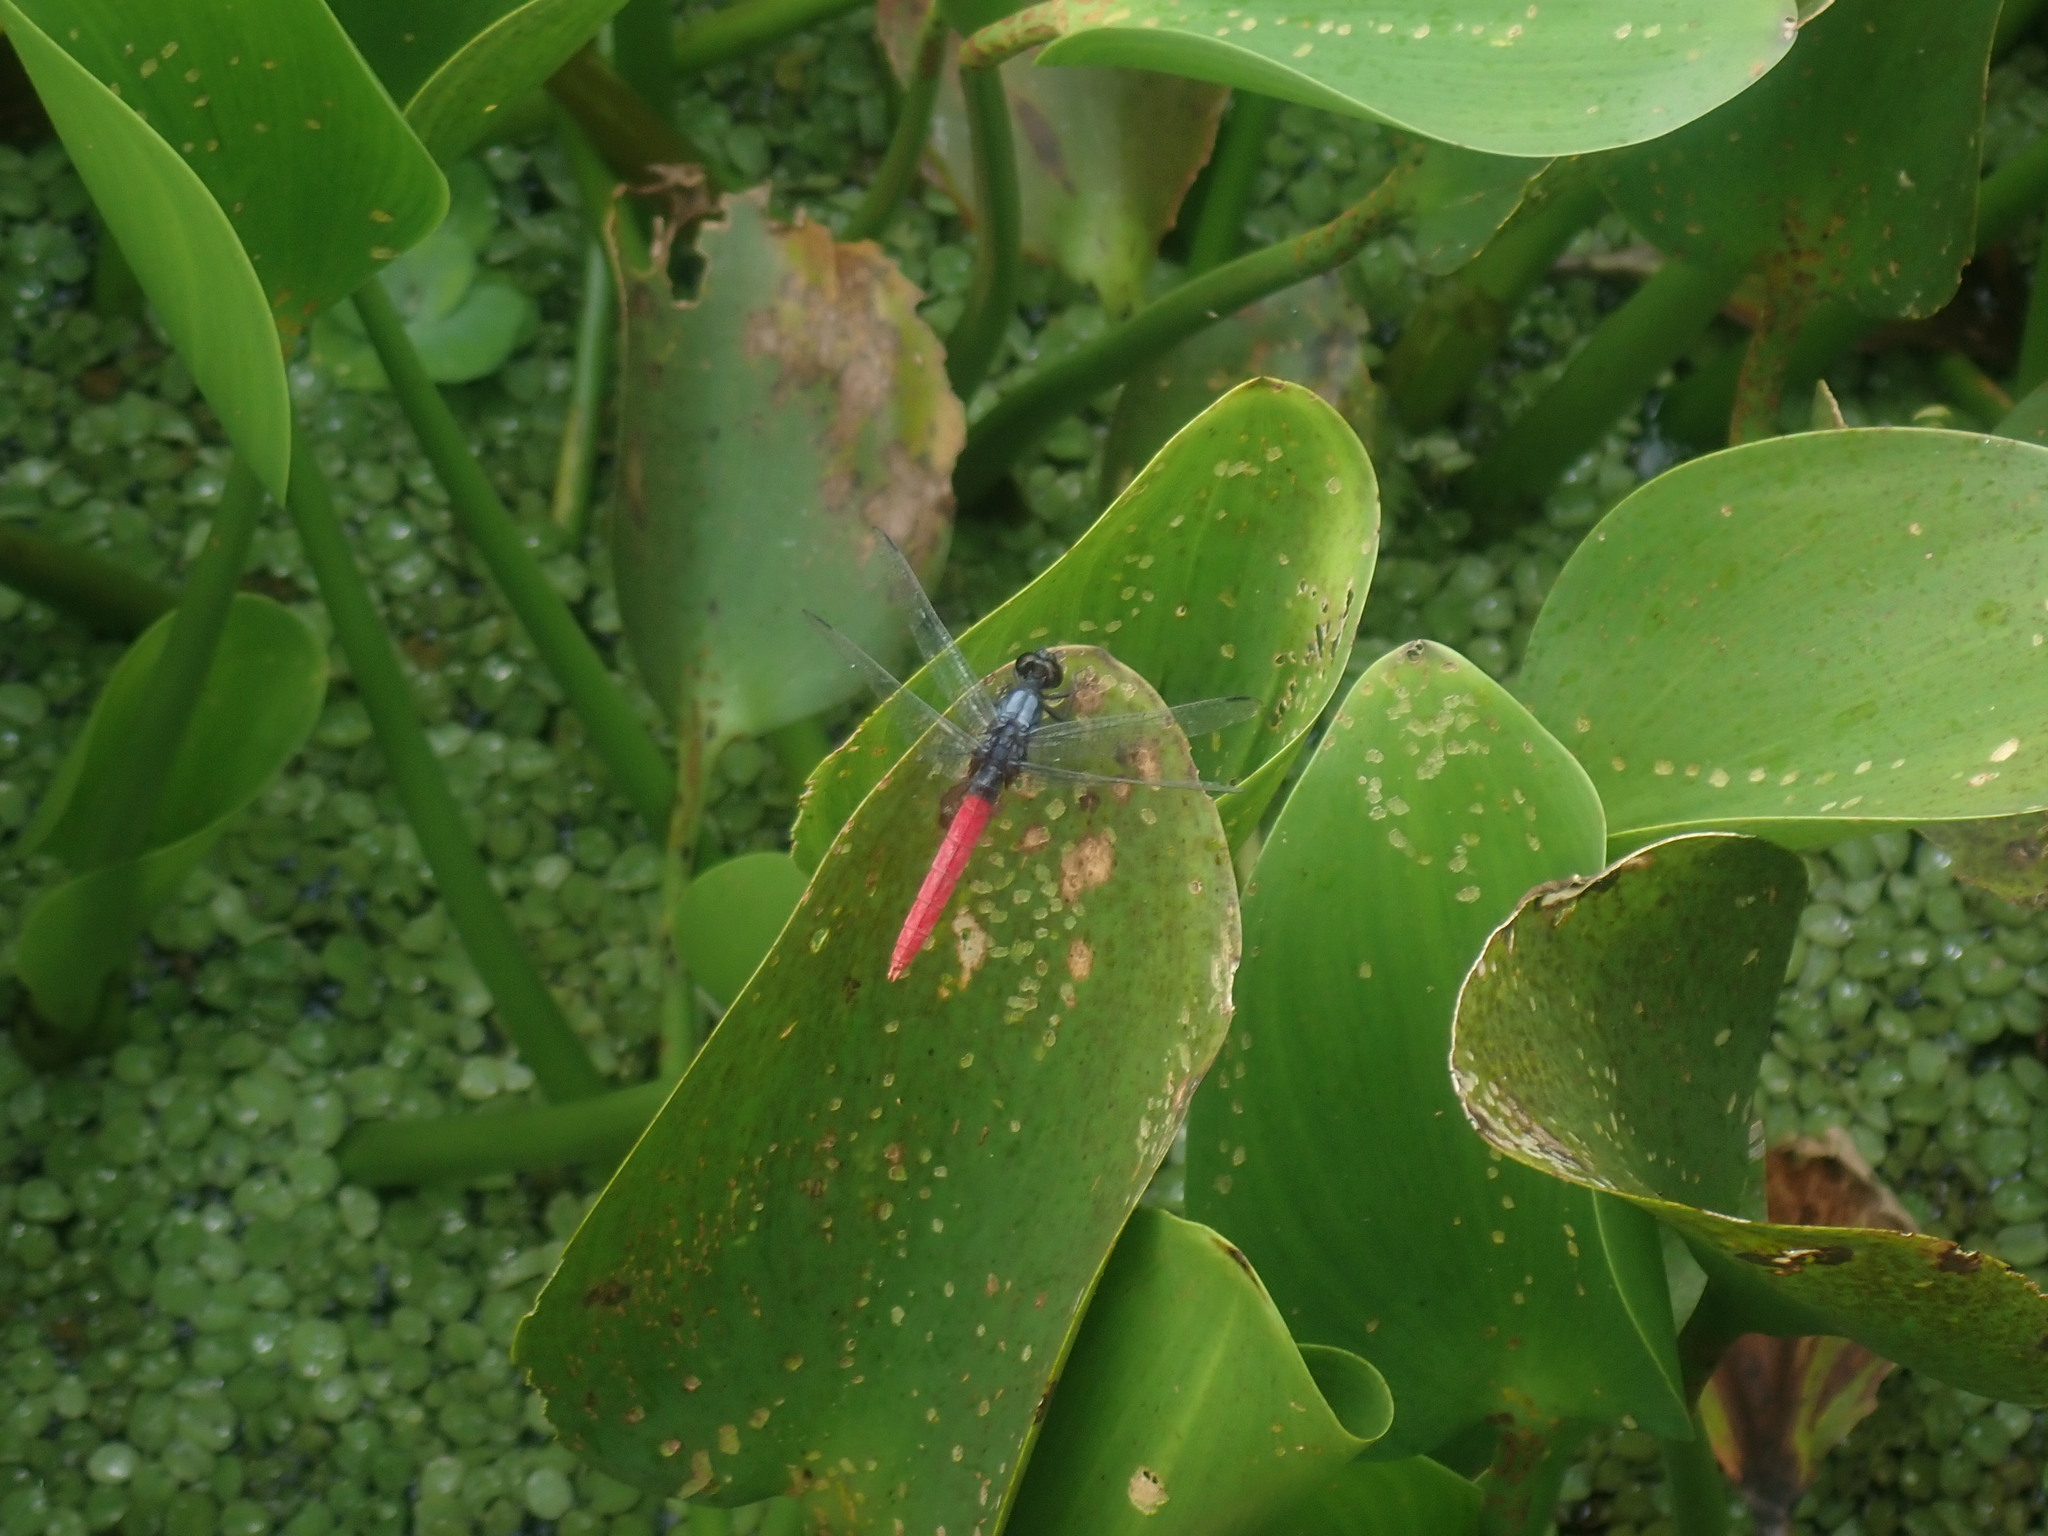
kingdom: Animalia
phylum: Arthropoda
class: Insecta
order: Odonata
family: Libellulidae
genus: Erythemis
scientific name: Erythemis peruviana
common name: Flame-tailed pondhawk
